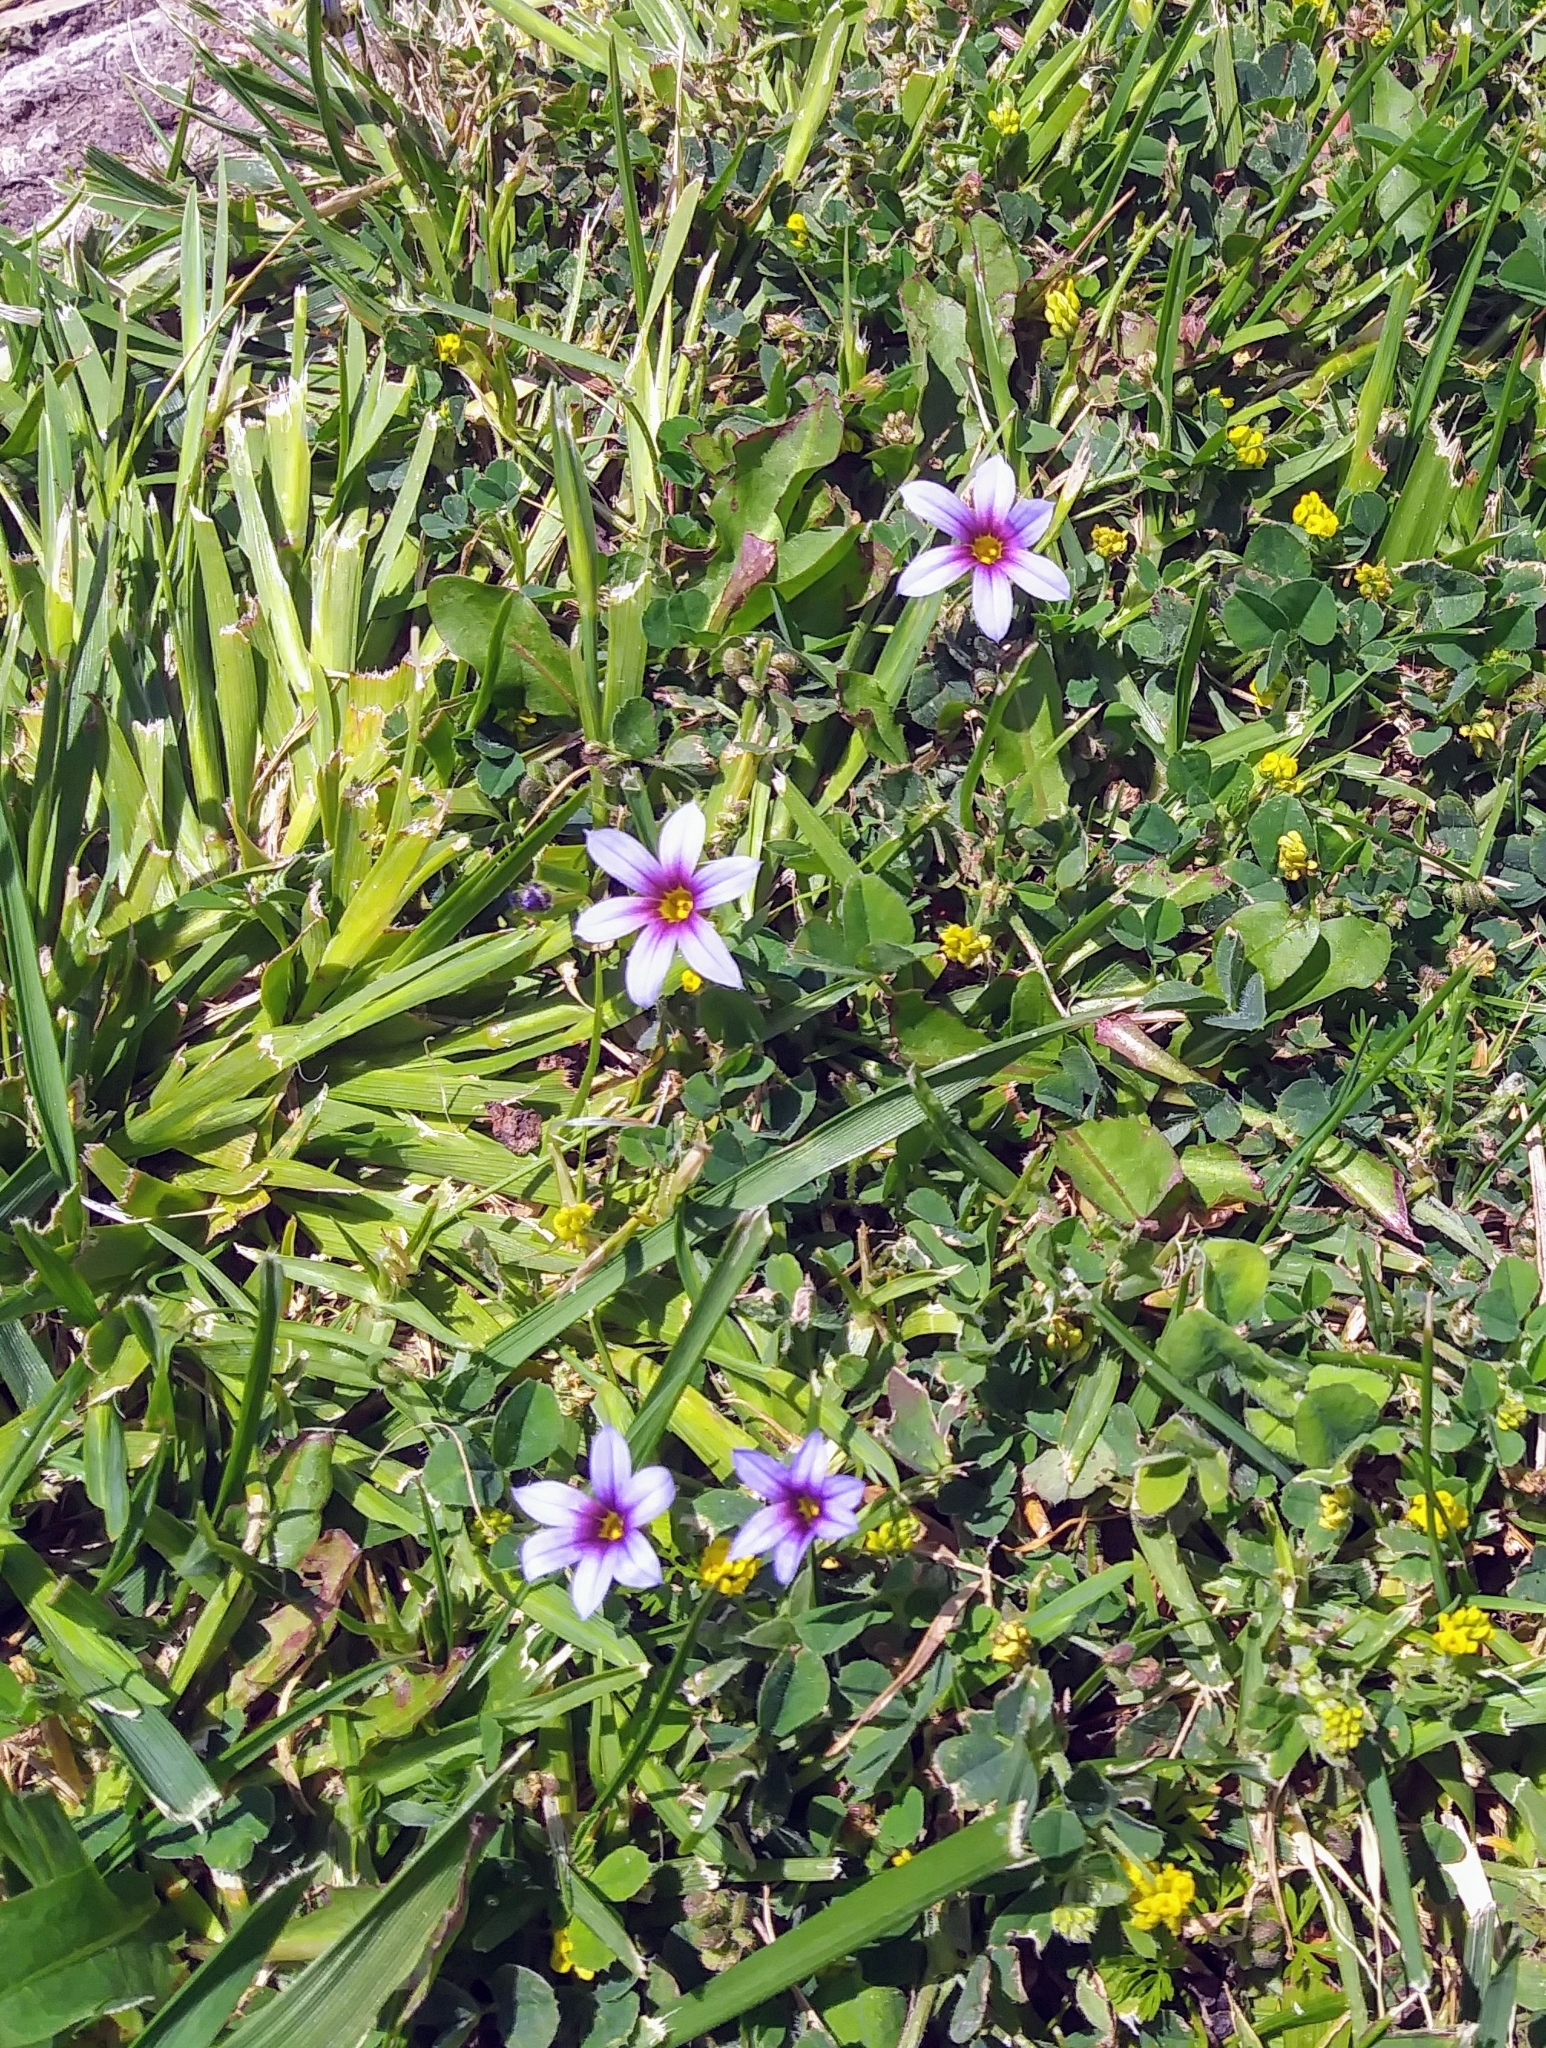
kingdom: Plantae
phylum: Tracheophyta
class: Liliopsida
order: Asparagales
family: Iridaceae
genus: Sisyrinchium
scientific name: Sisyrinchium micranthum
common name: Bermuda pigroot
